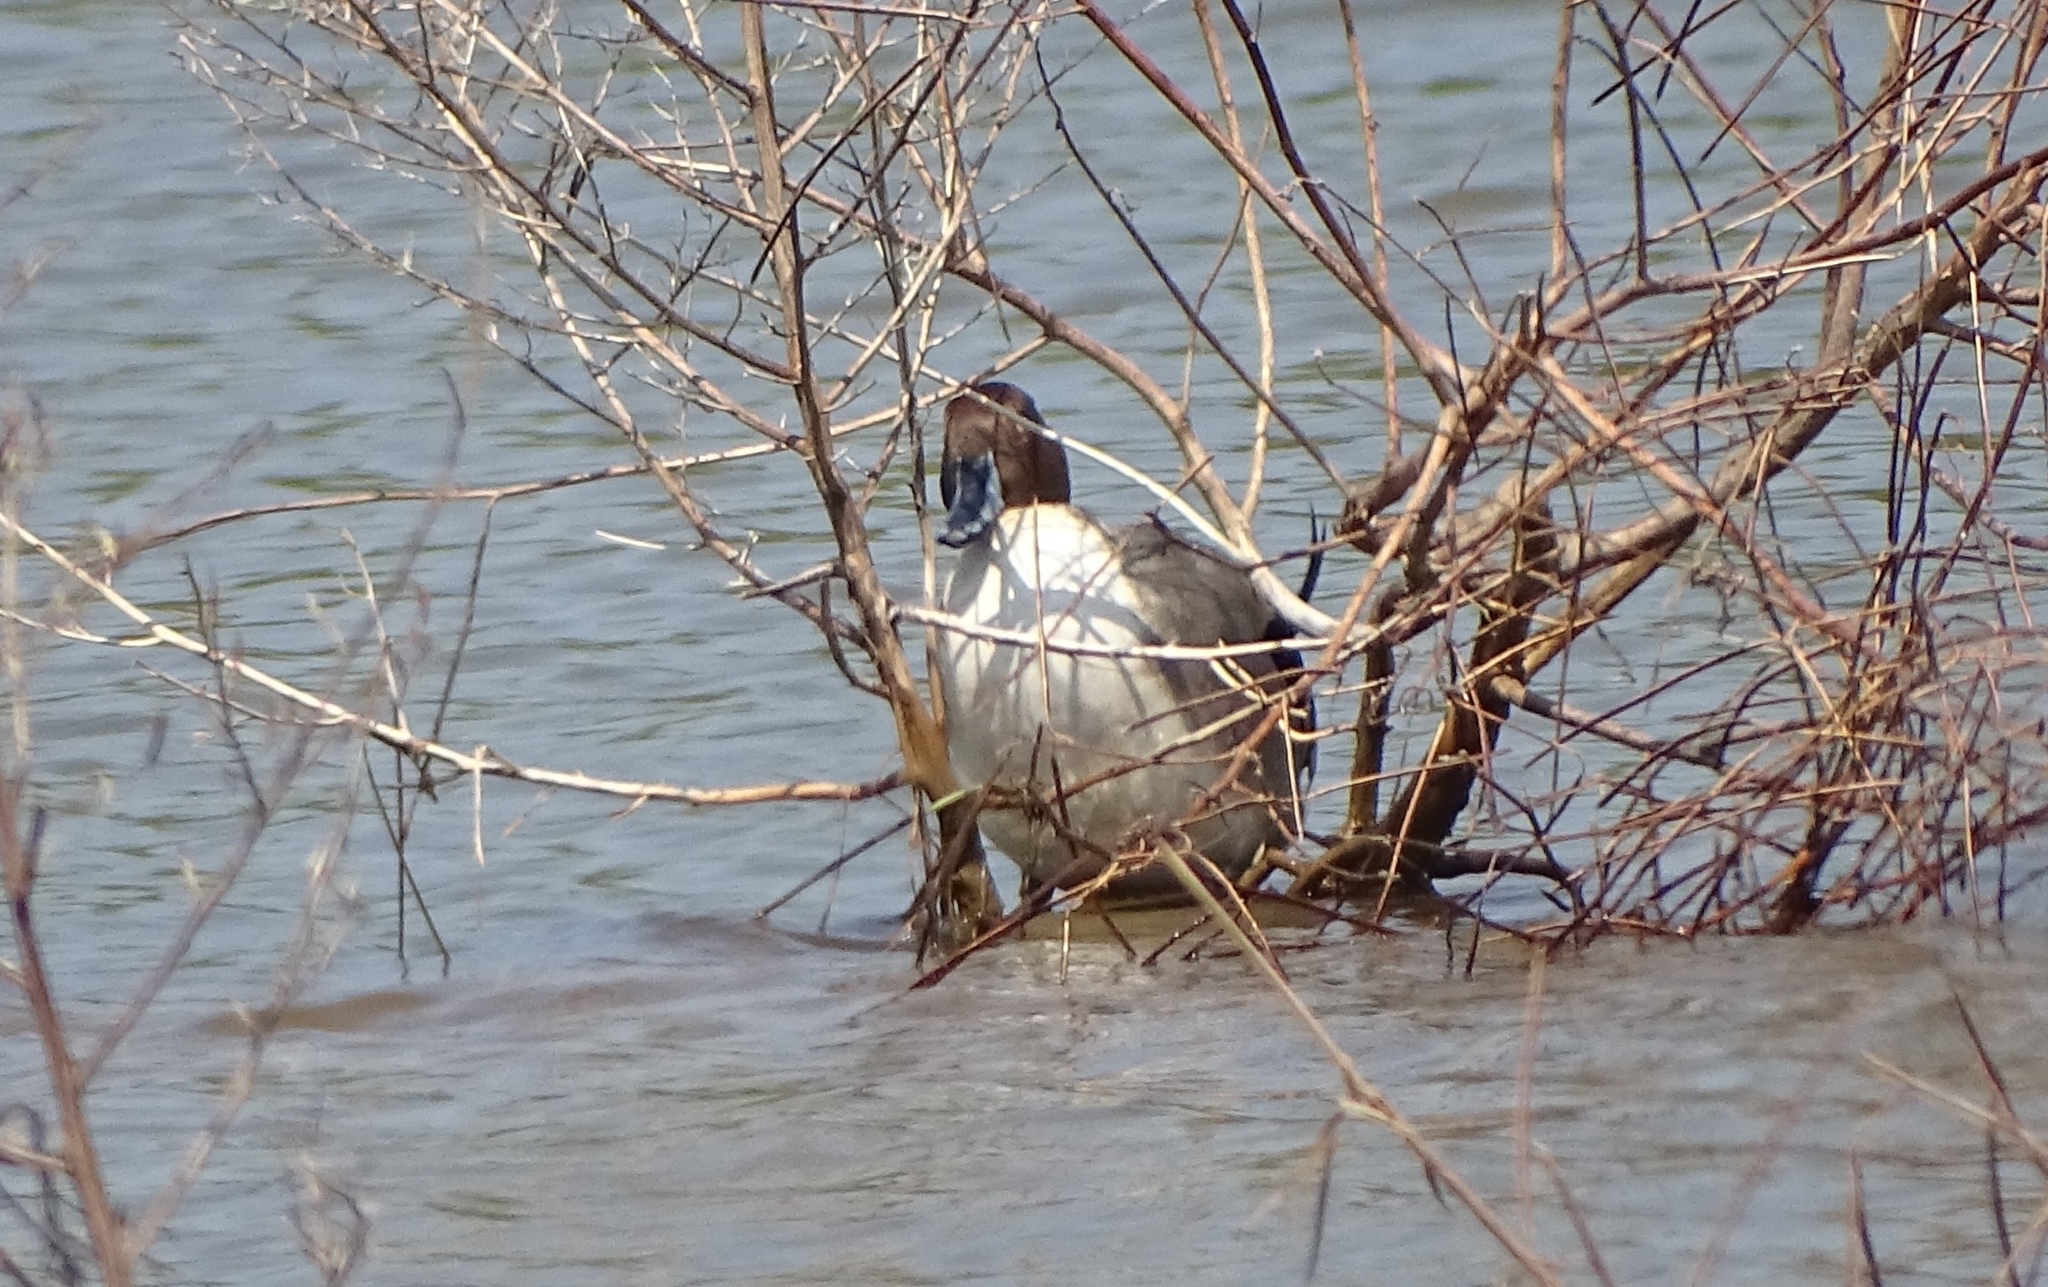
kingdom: Animalia
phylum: Chordata
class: Aves
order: Anseriformes
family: Anatidae
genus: Anas
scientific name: Anas acuta
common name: Northern pintail
